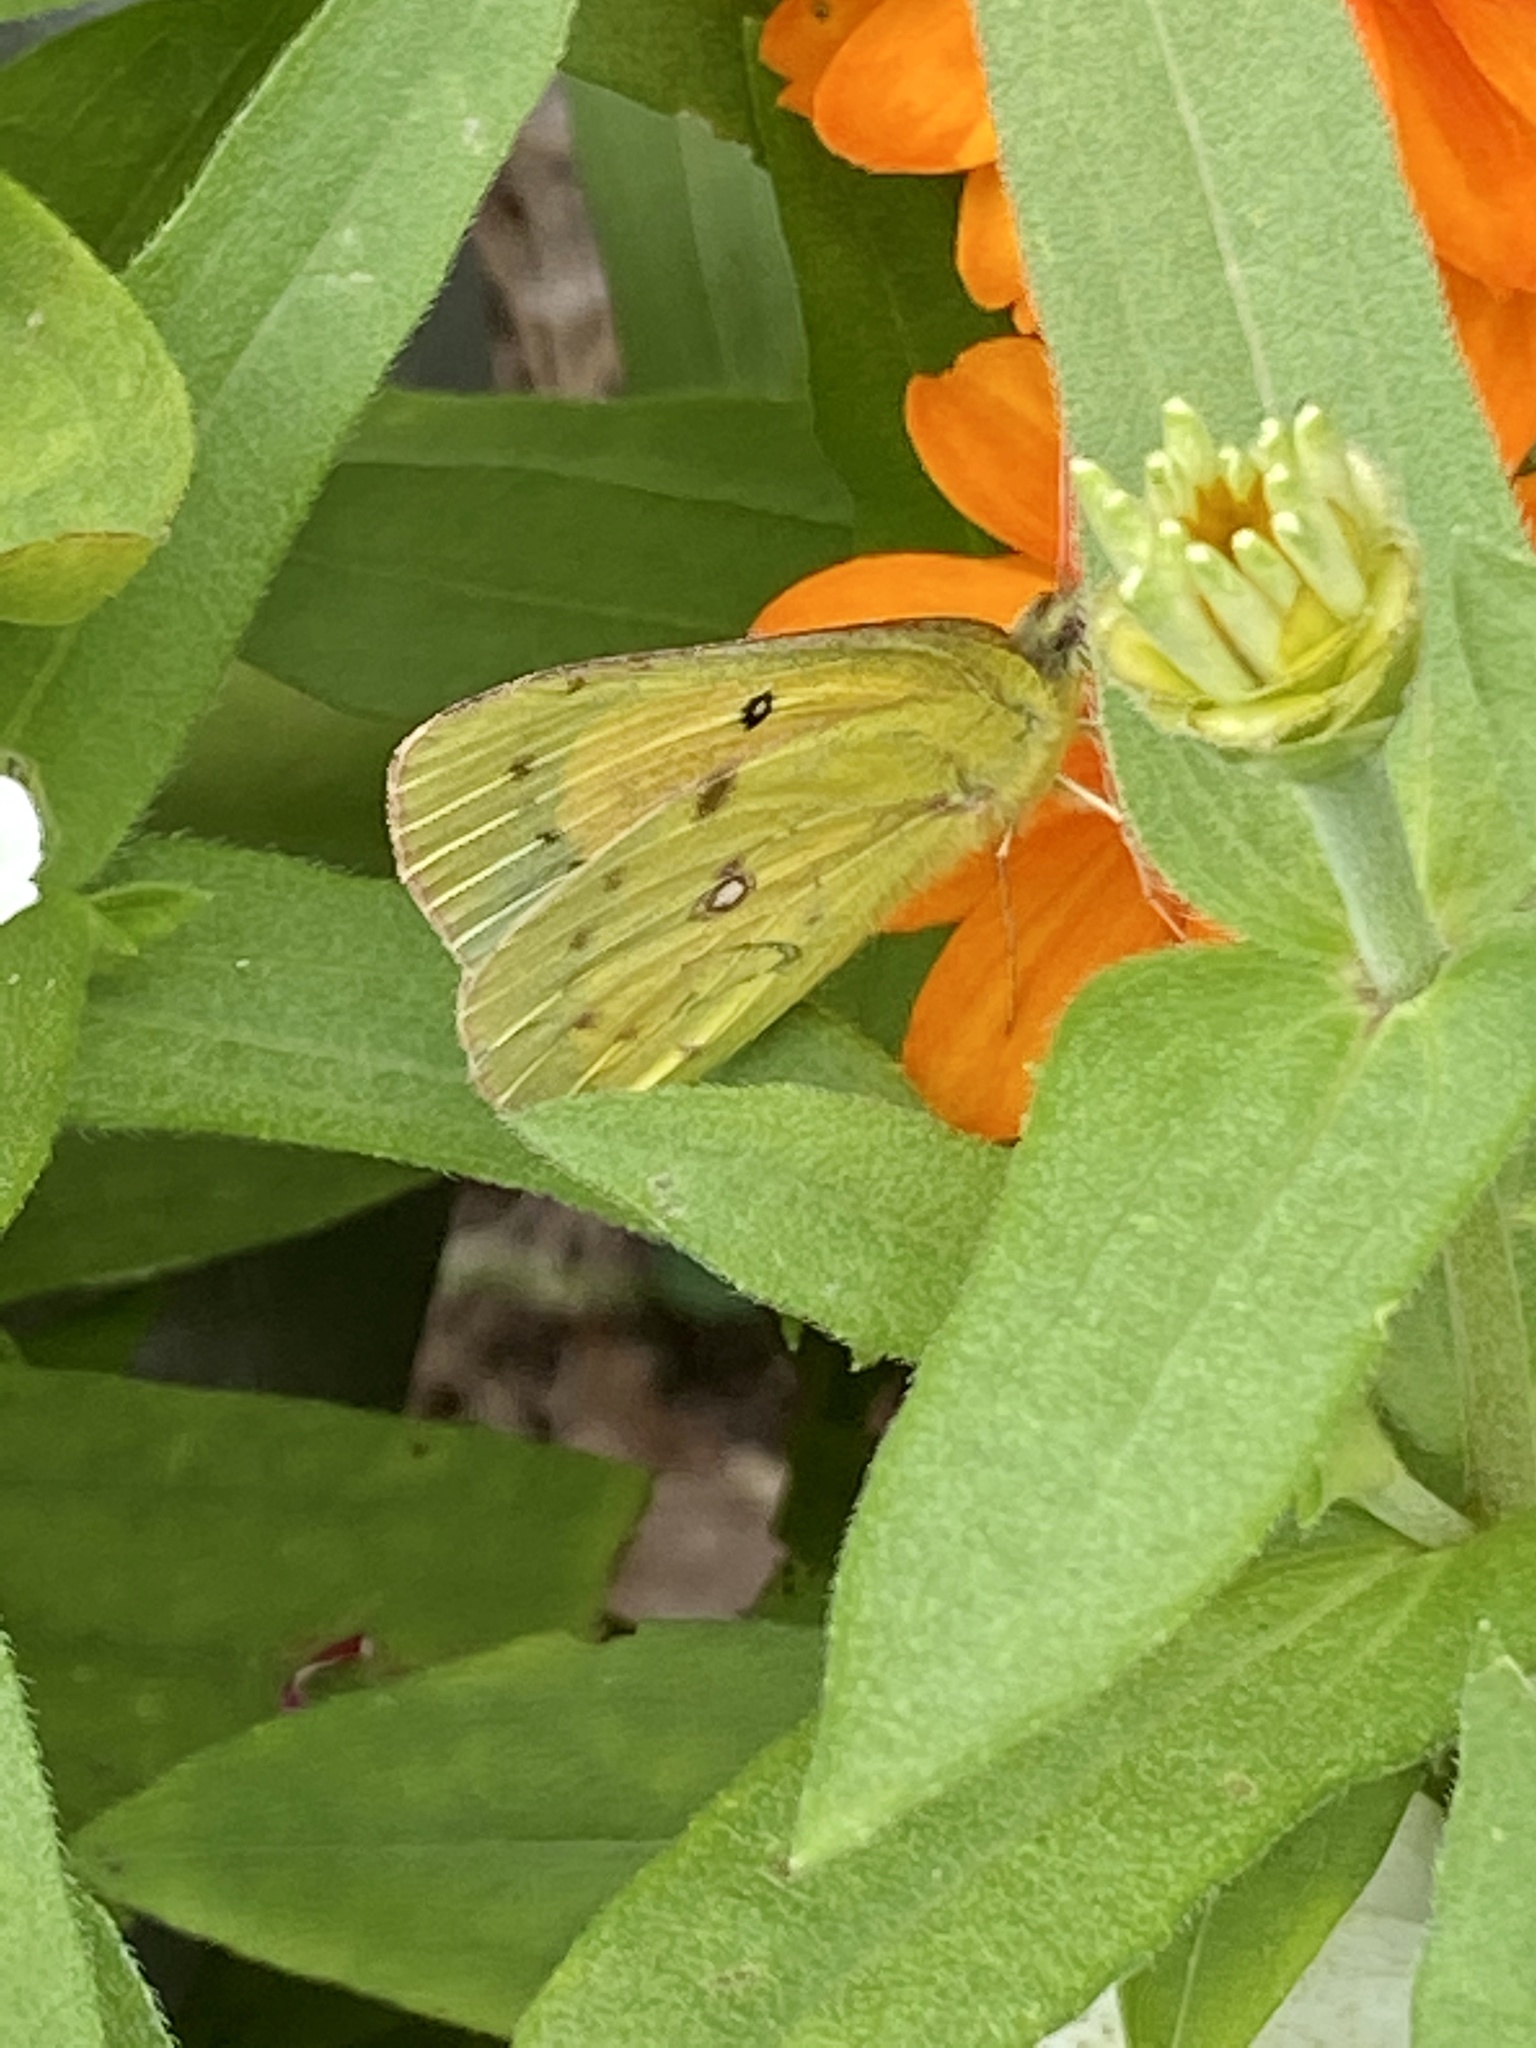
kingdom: Animalia
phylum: Arthropoda
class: Insecta
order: Lepidoptera
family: Pieridae
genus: Colias
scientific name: Colias eurytheme
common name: Alfalfa butterfly
